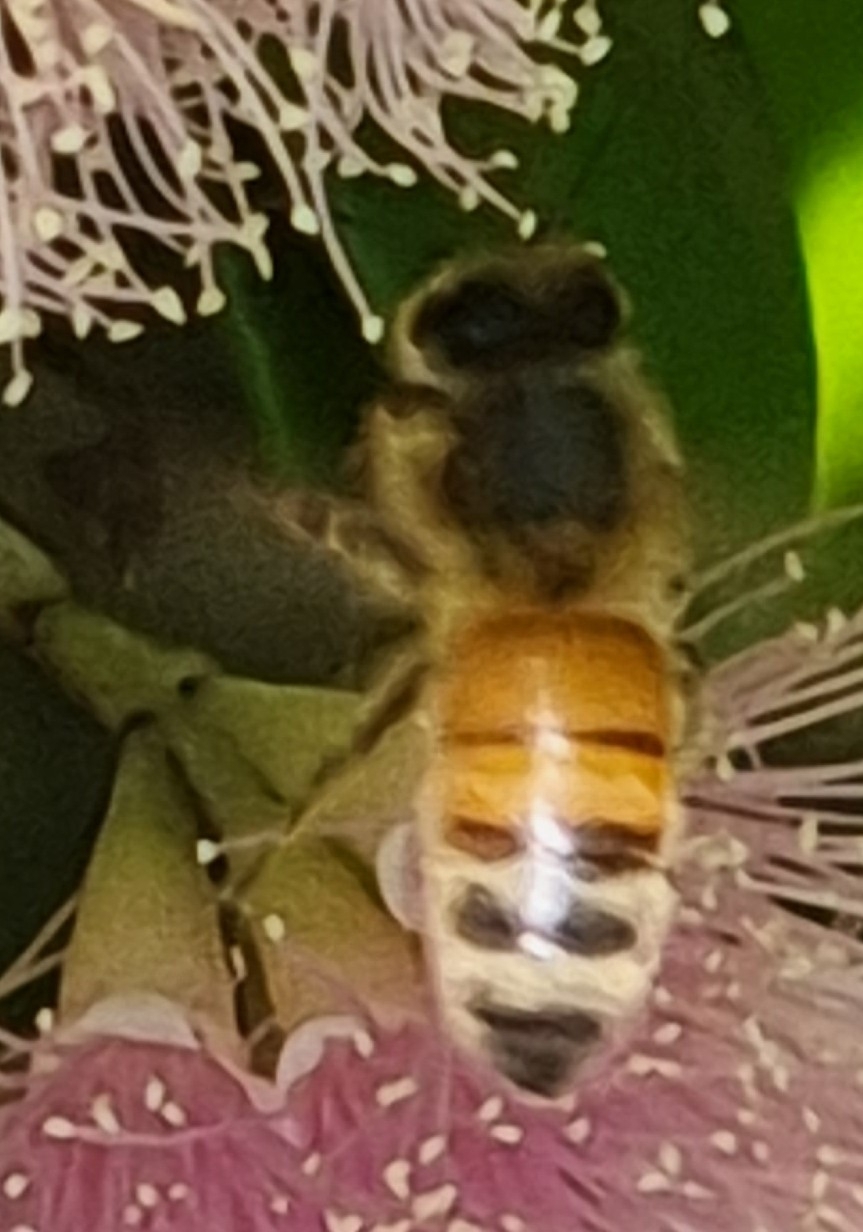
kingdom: Animalia
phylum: Arthropoda
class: Insecta
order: Hymenoptera
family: Apidae
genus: Apis
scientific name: Apis mellifera
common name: Honey bee
